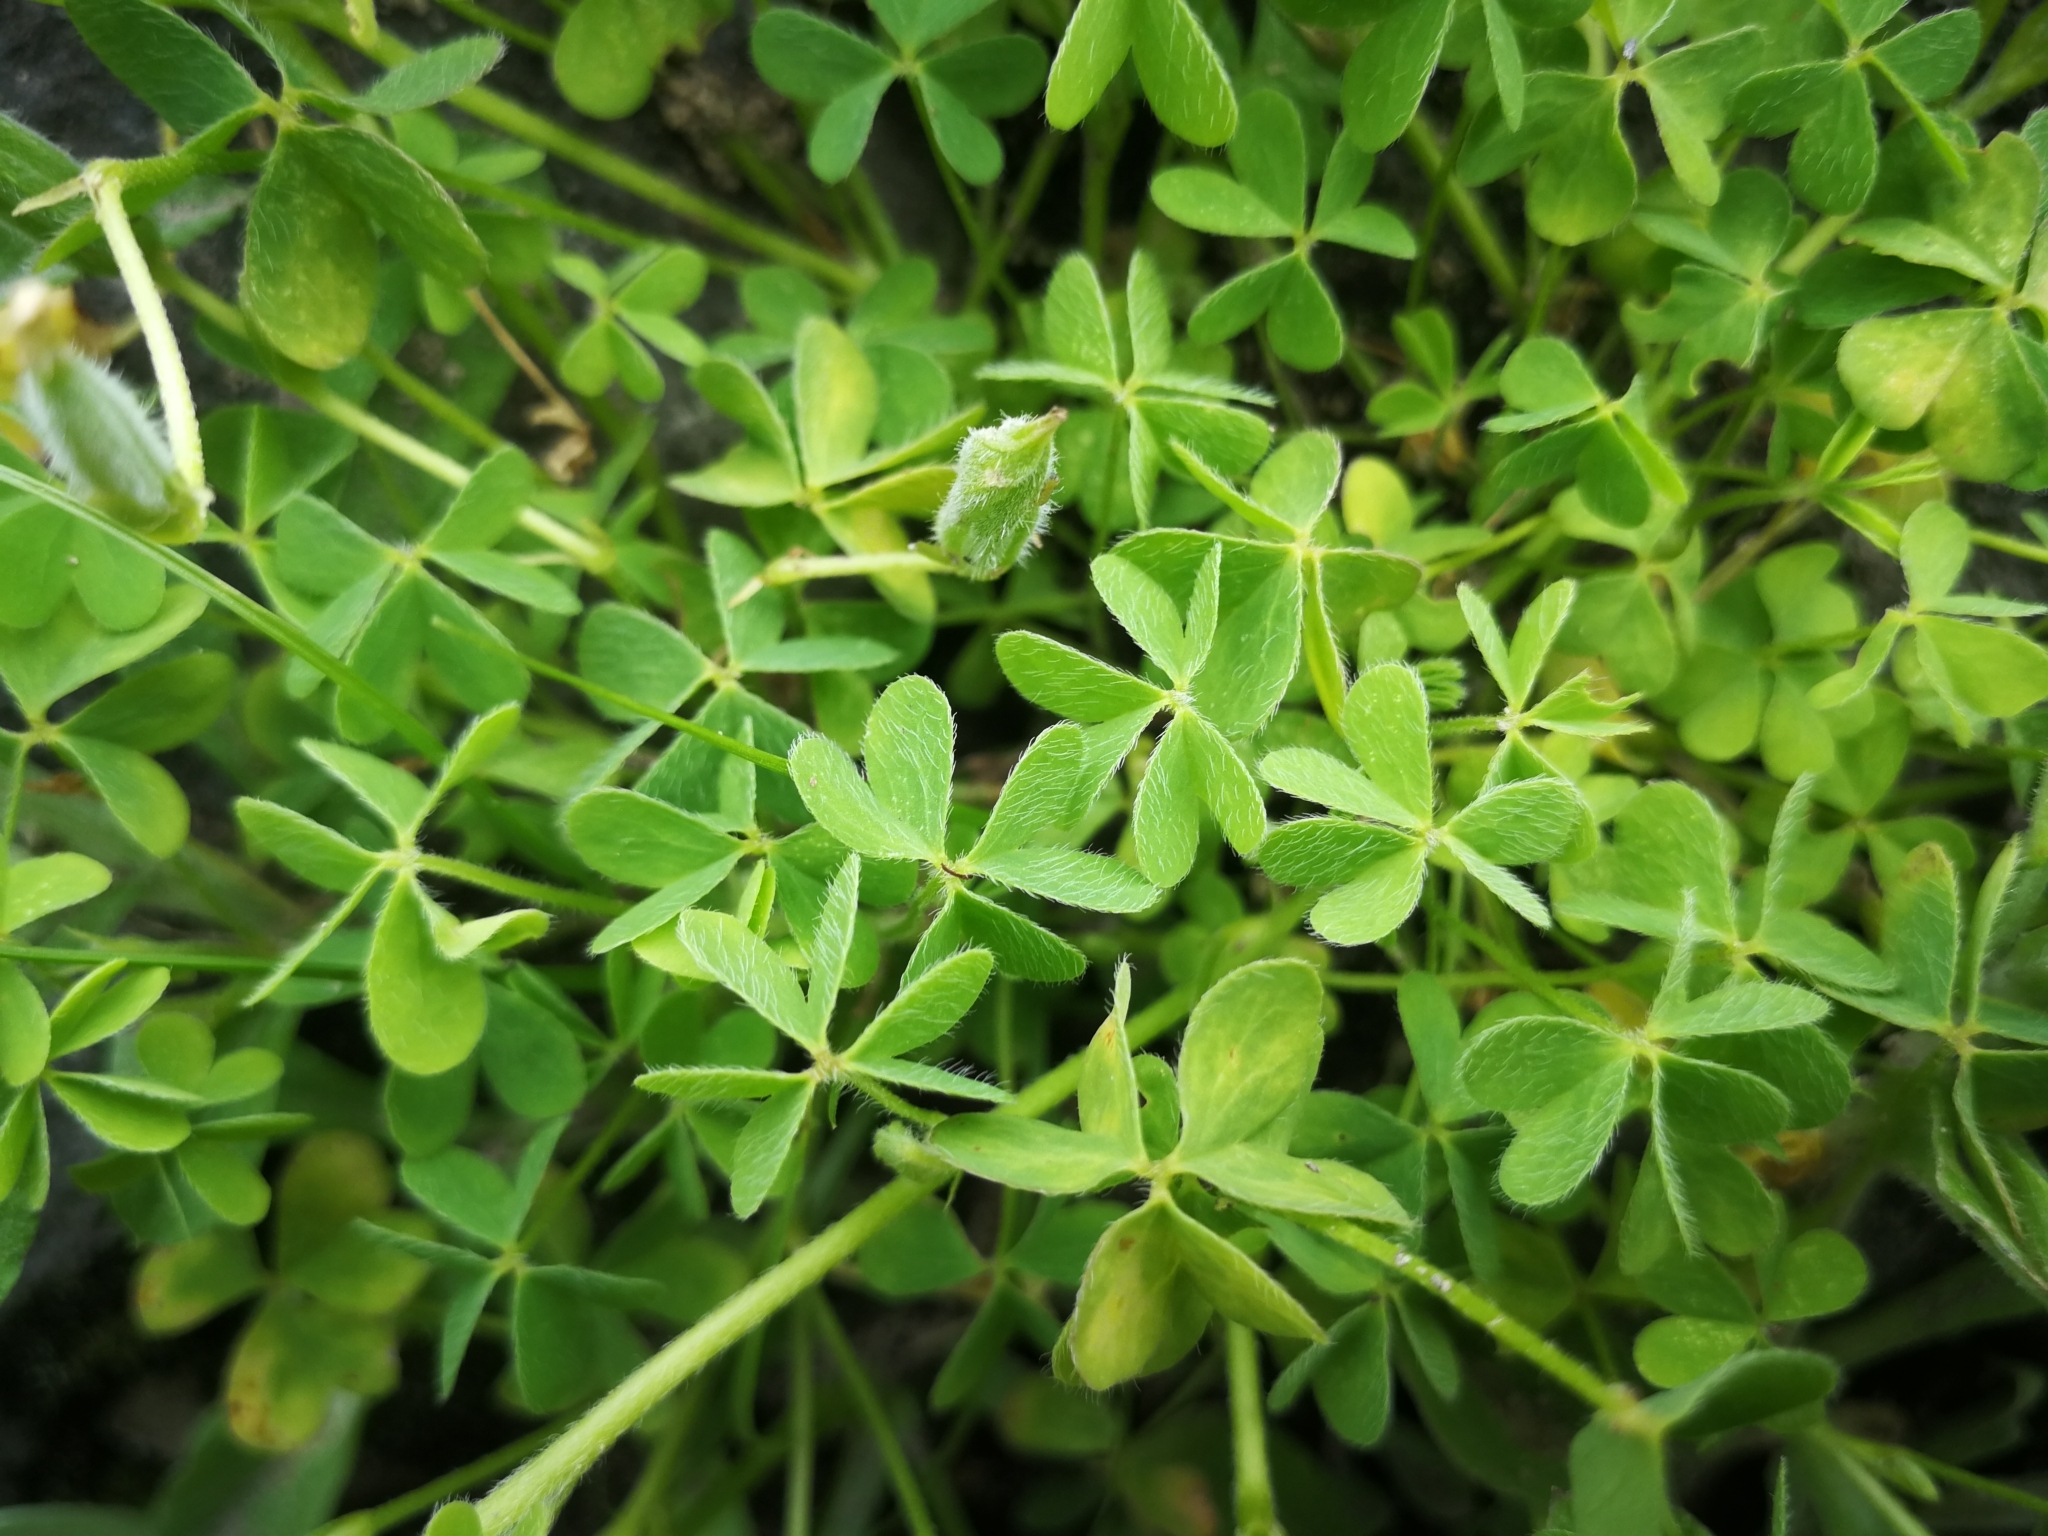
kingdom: Plantae
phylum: Tracheophyta
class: Magnoliopsida
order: Oxalidales
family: Oxalidaceae
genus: Oxalis
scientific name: Oxalis corniculata
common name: Procumbent yellow-sorrel
